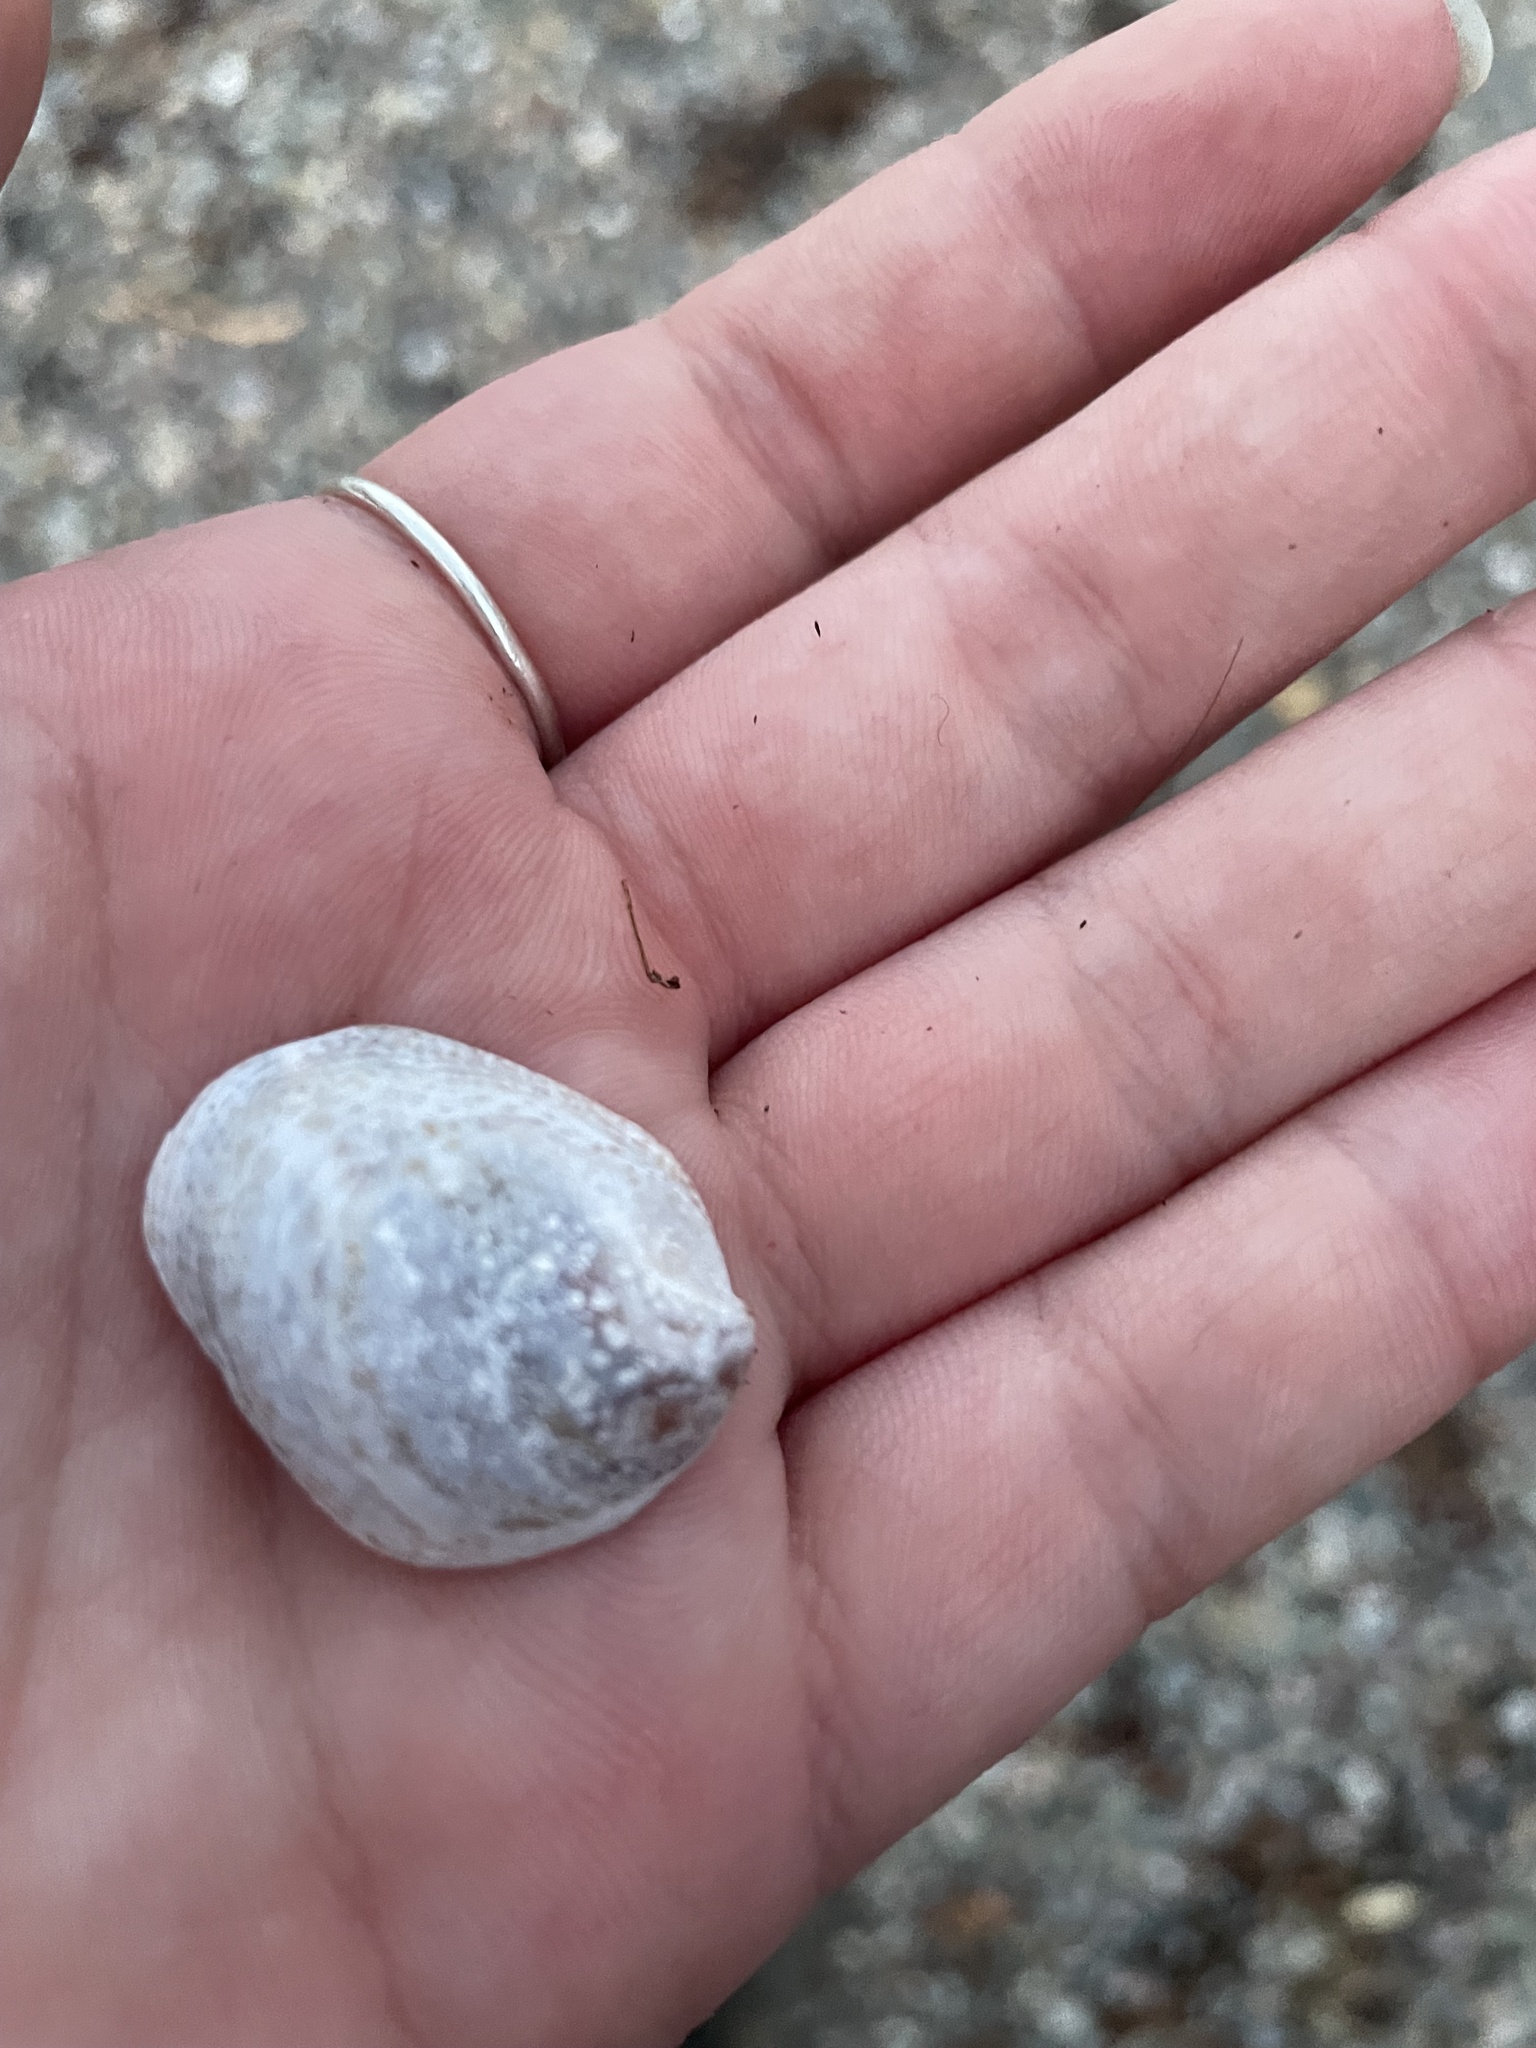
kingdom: Animalia
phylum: Mollusca
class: Gastropoda
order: Littorinimorpha
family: Calyptraeidae
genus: Crepidula
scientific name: Crepidula fornicata
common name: Slipper limpet
